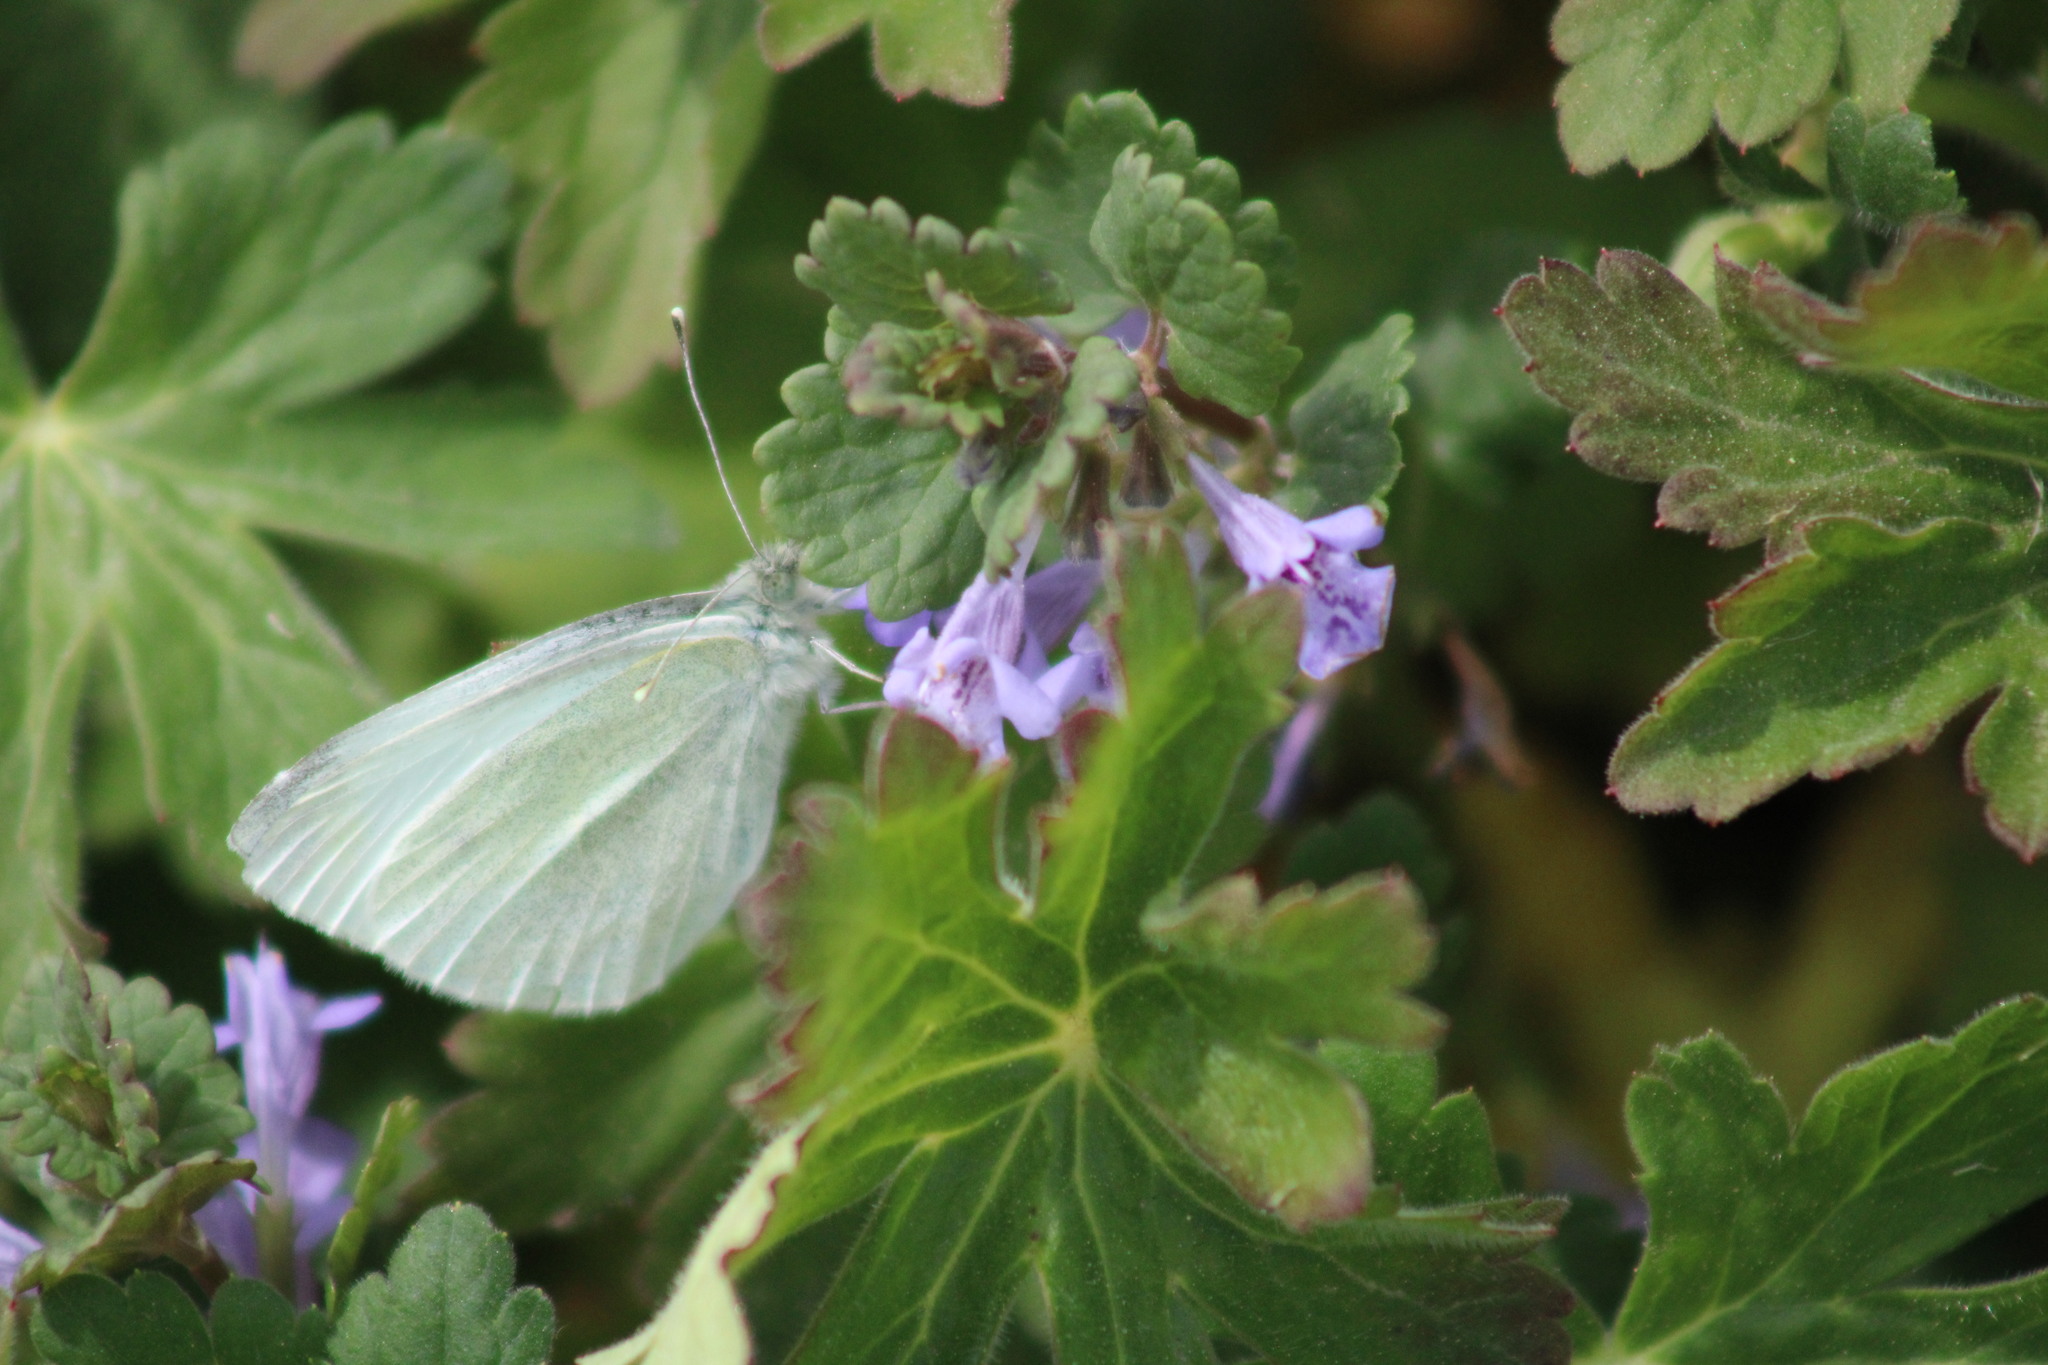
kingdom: Animalia
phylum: Arthropoda
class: Insecta
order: Lepidoptera
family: Pieridae
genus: Pieris
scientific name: Pieris rapae
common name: Small white
